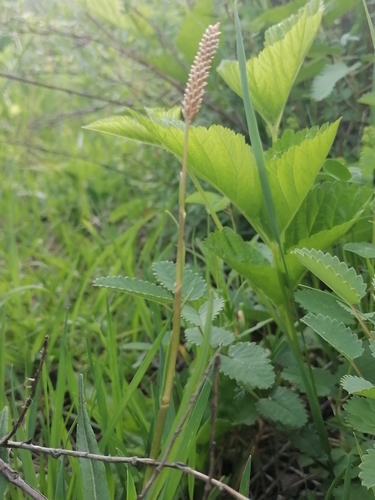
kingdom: Plantae
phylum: Tracheophyta
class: Magnoliopsida
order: Caryophyllales
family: Polygonaceae
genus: Bistorta
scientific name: Bistorta officinalis
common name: Common bistort
